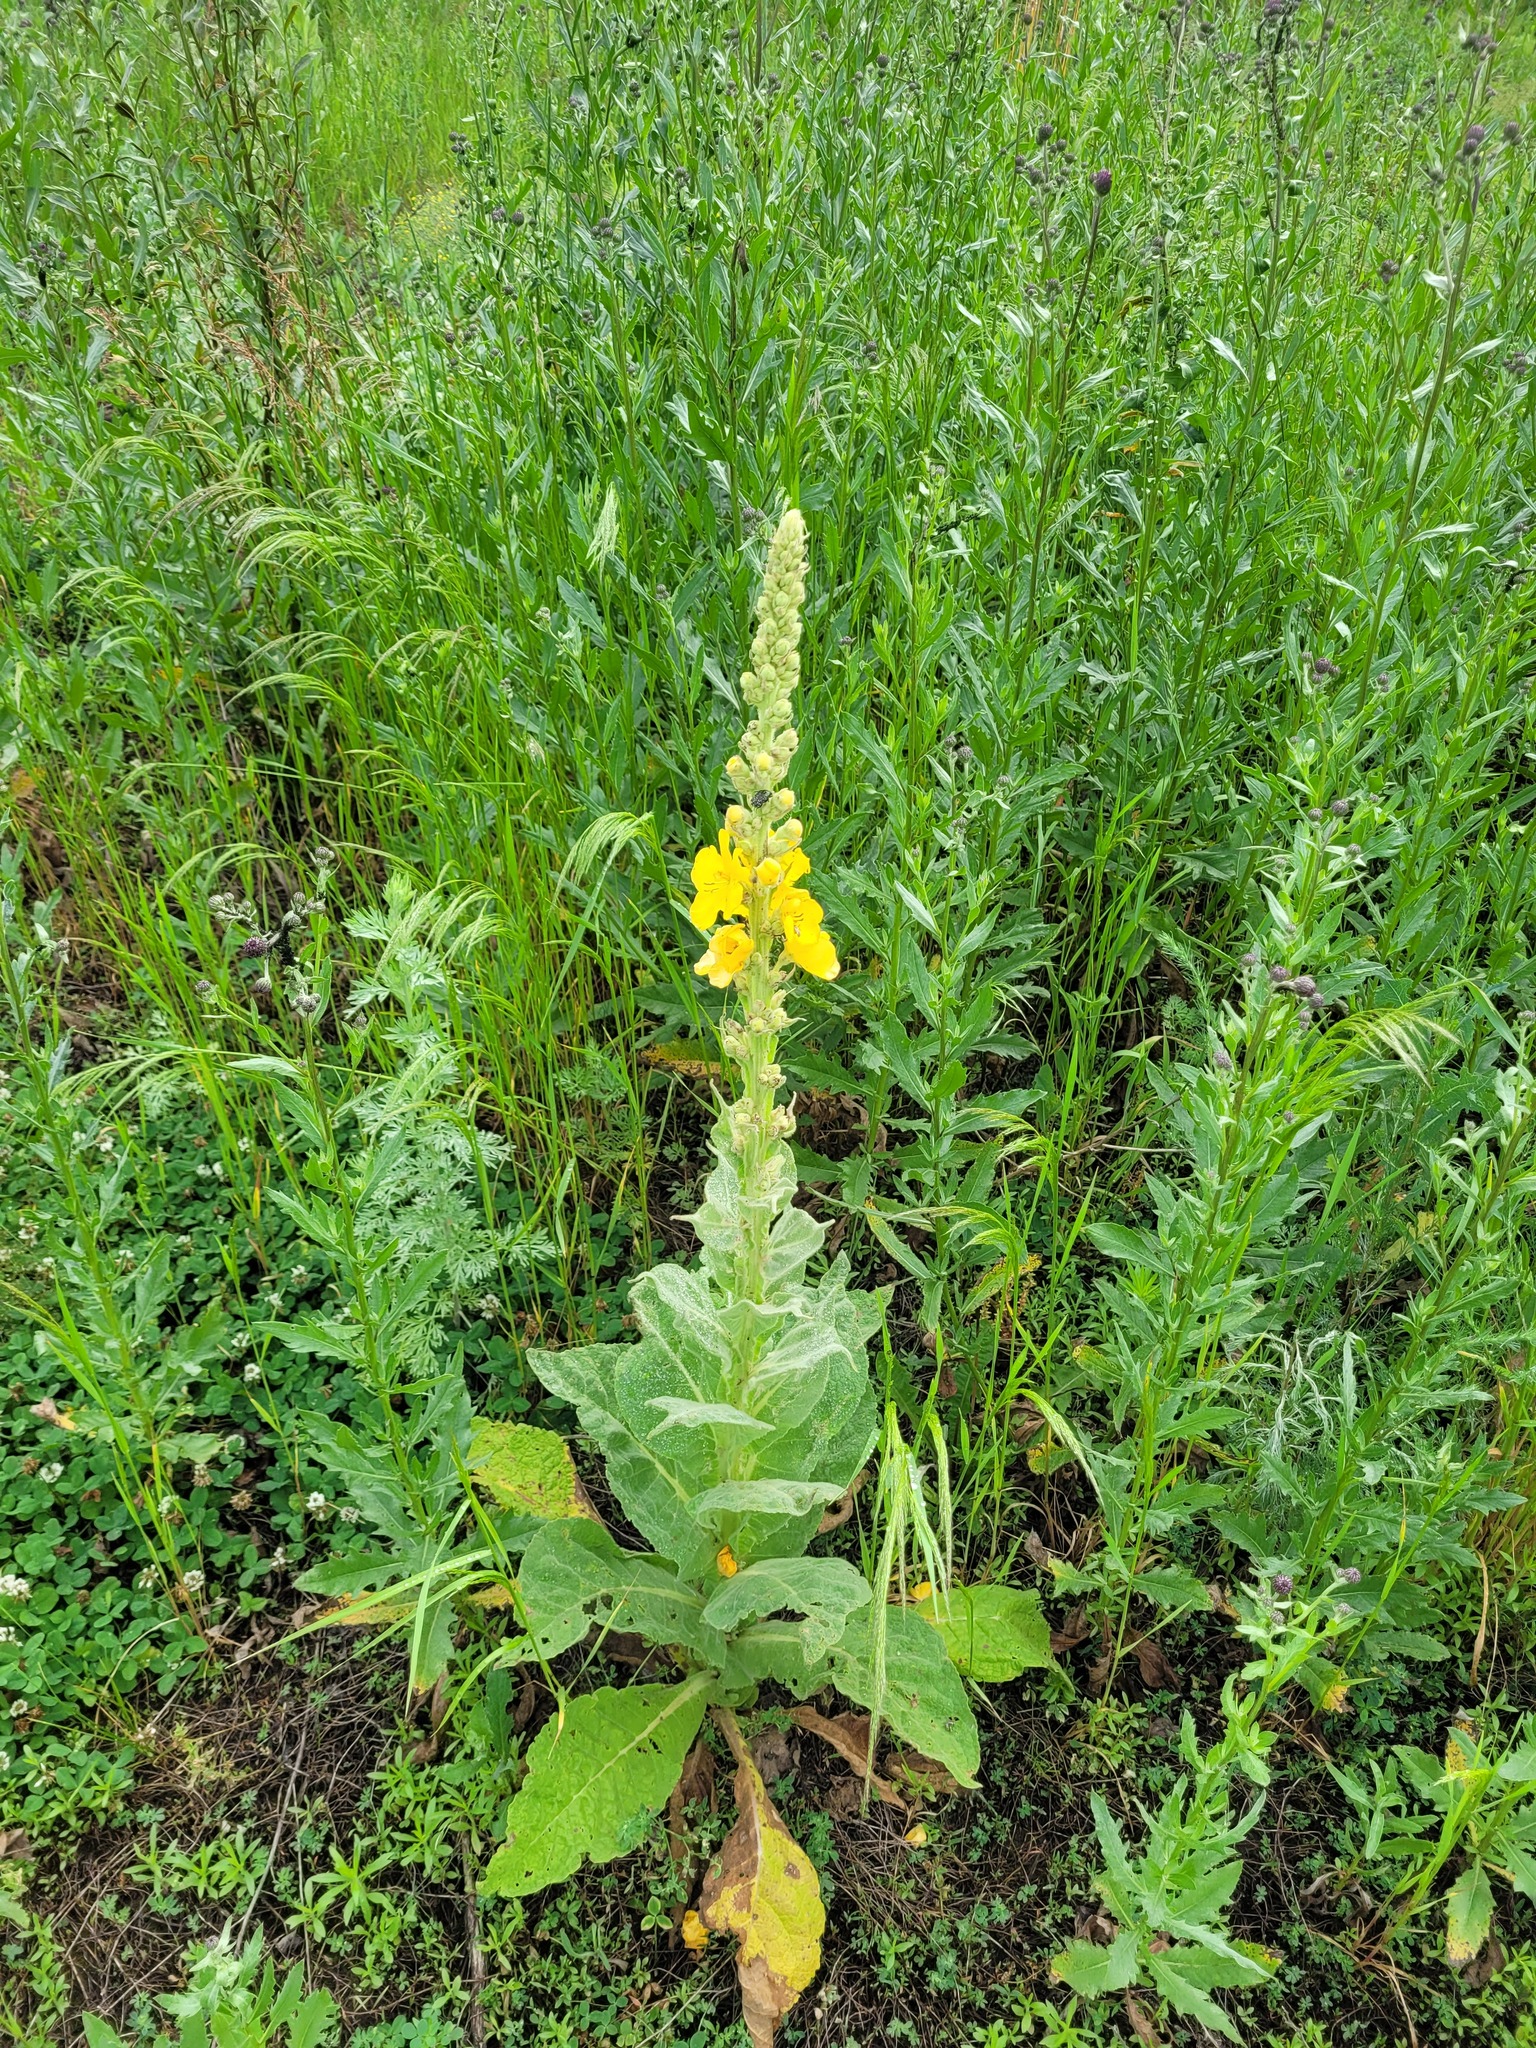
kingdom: Plantae
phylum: Tracheophyta
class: Magnoliopsida
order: Lamiales
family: Scrophulariaceae
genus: Verbascum
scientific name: Verbascum densiflorum
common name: Dense-flowered mullein
